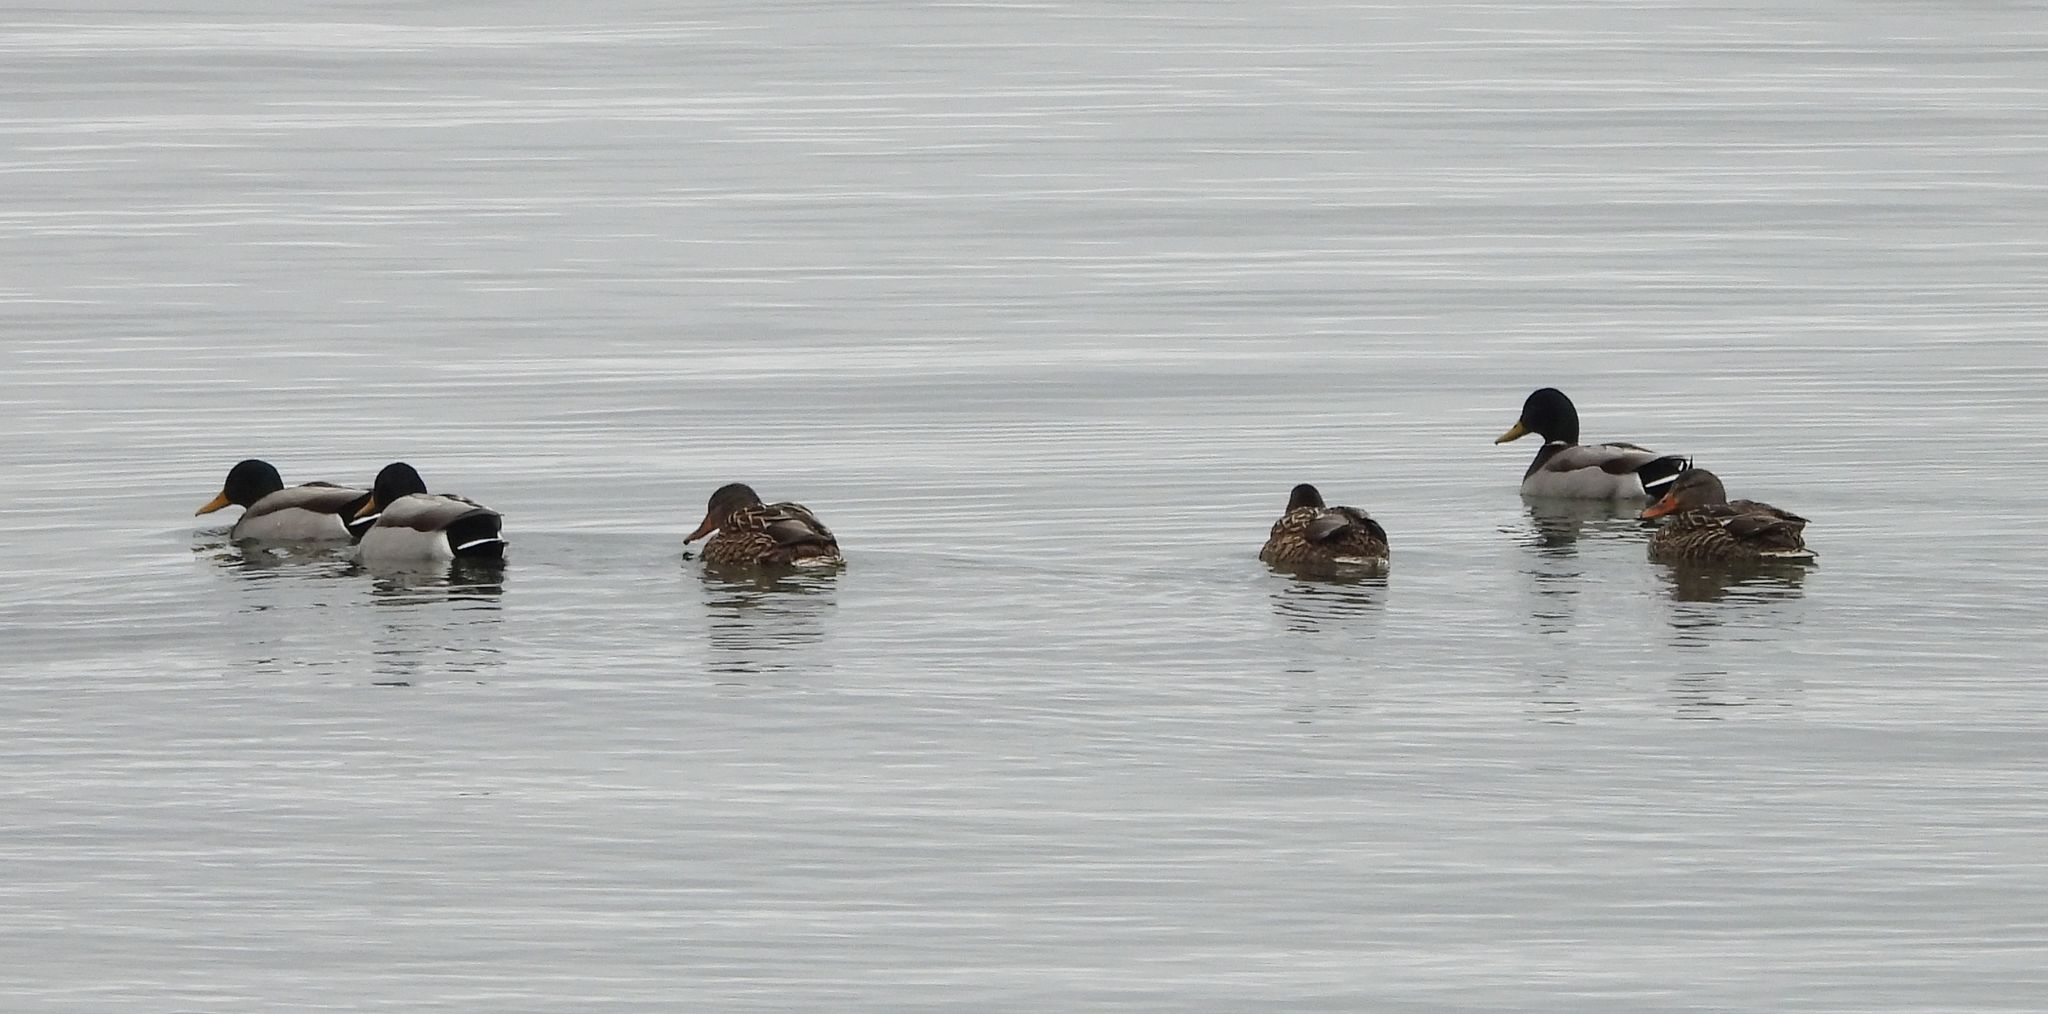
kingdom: Animalia
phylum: Chordata
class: Aves
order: Anseriformes
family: Anatidae
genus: Anas
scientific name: Anas platyrhynchos
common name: Mallard
